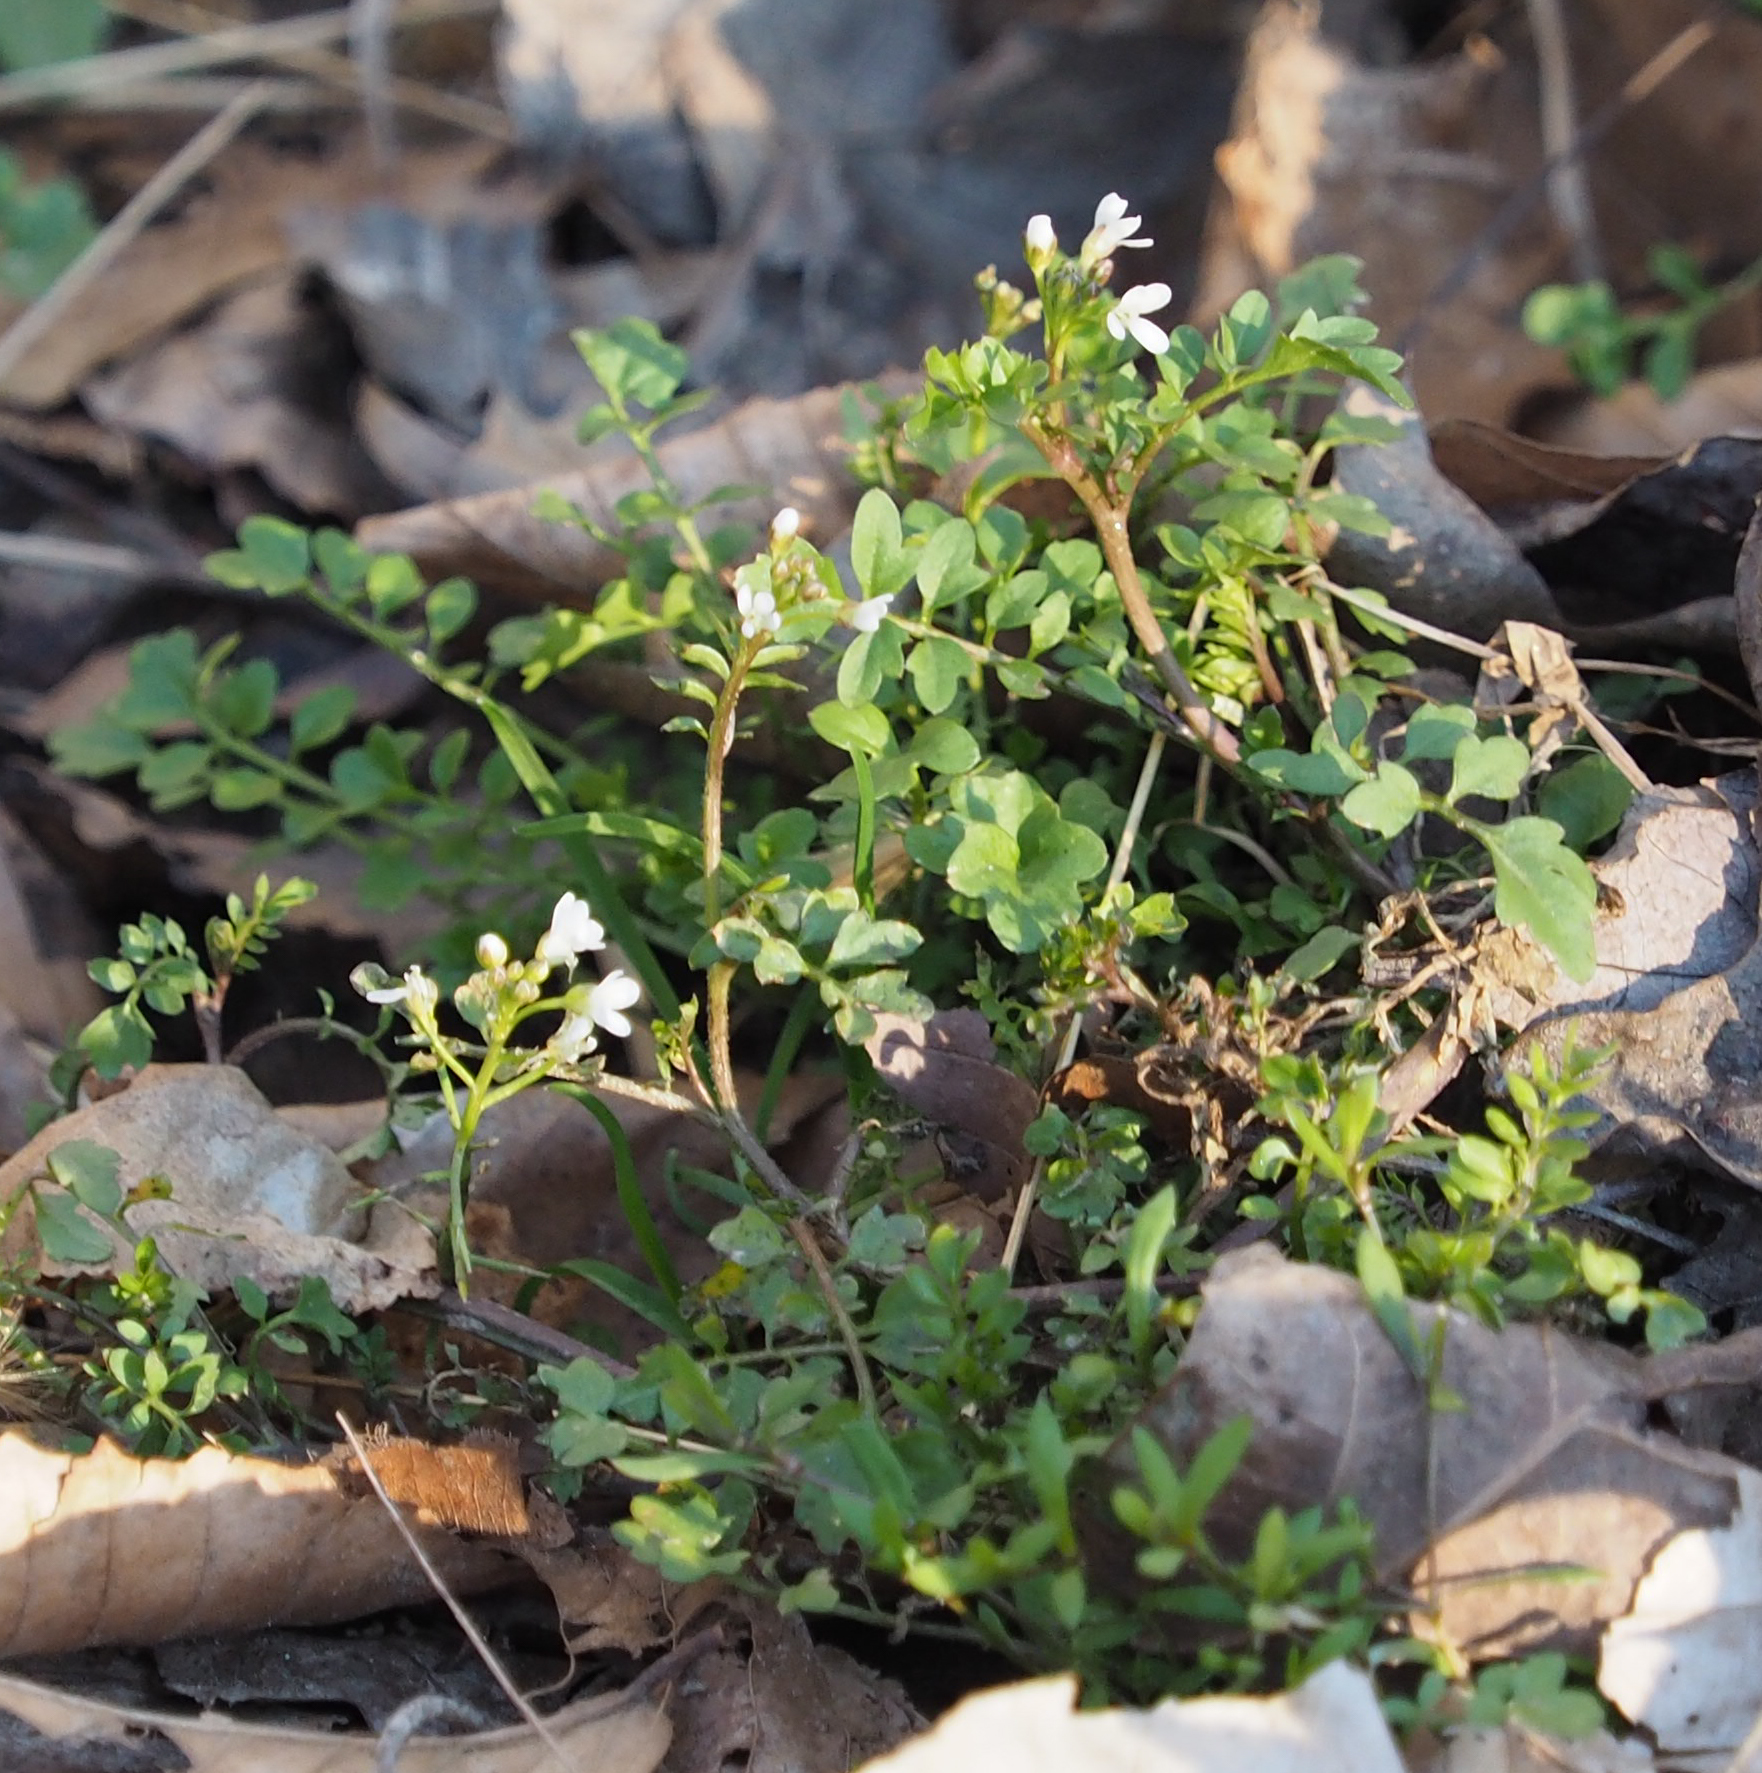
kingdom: Plantae
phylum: Tracheophyta
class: Magnoliopsida
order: Brassicales
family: Brassicaceae
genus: Cardamine
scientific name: Cardamine hirsuta
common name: Hairy bittercress
